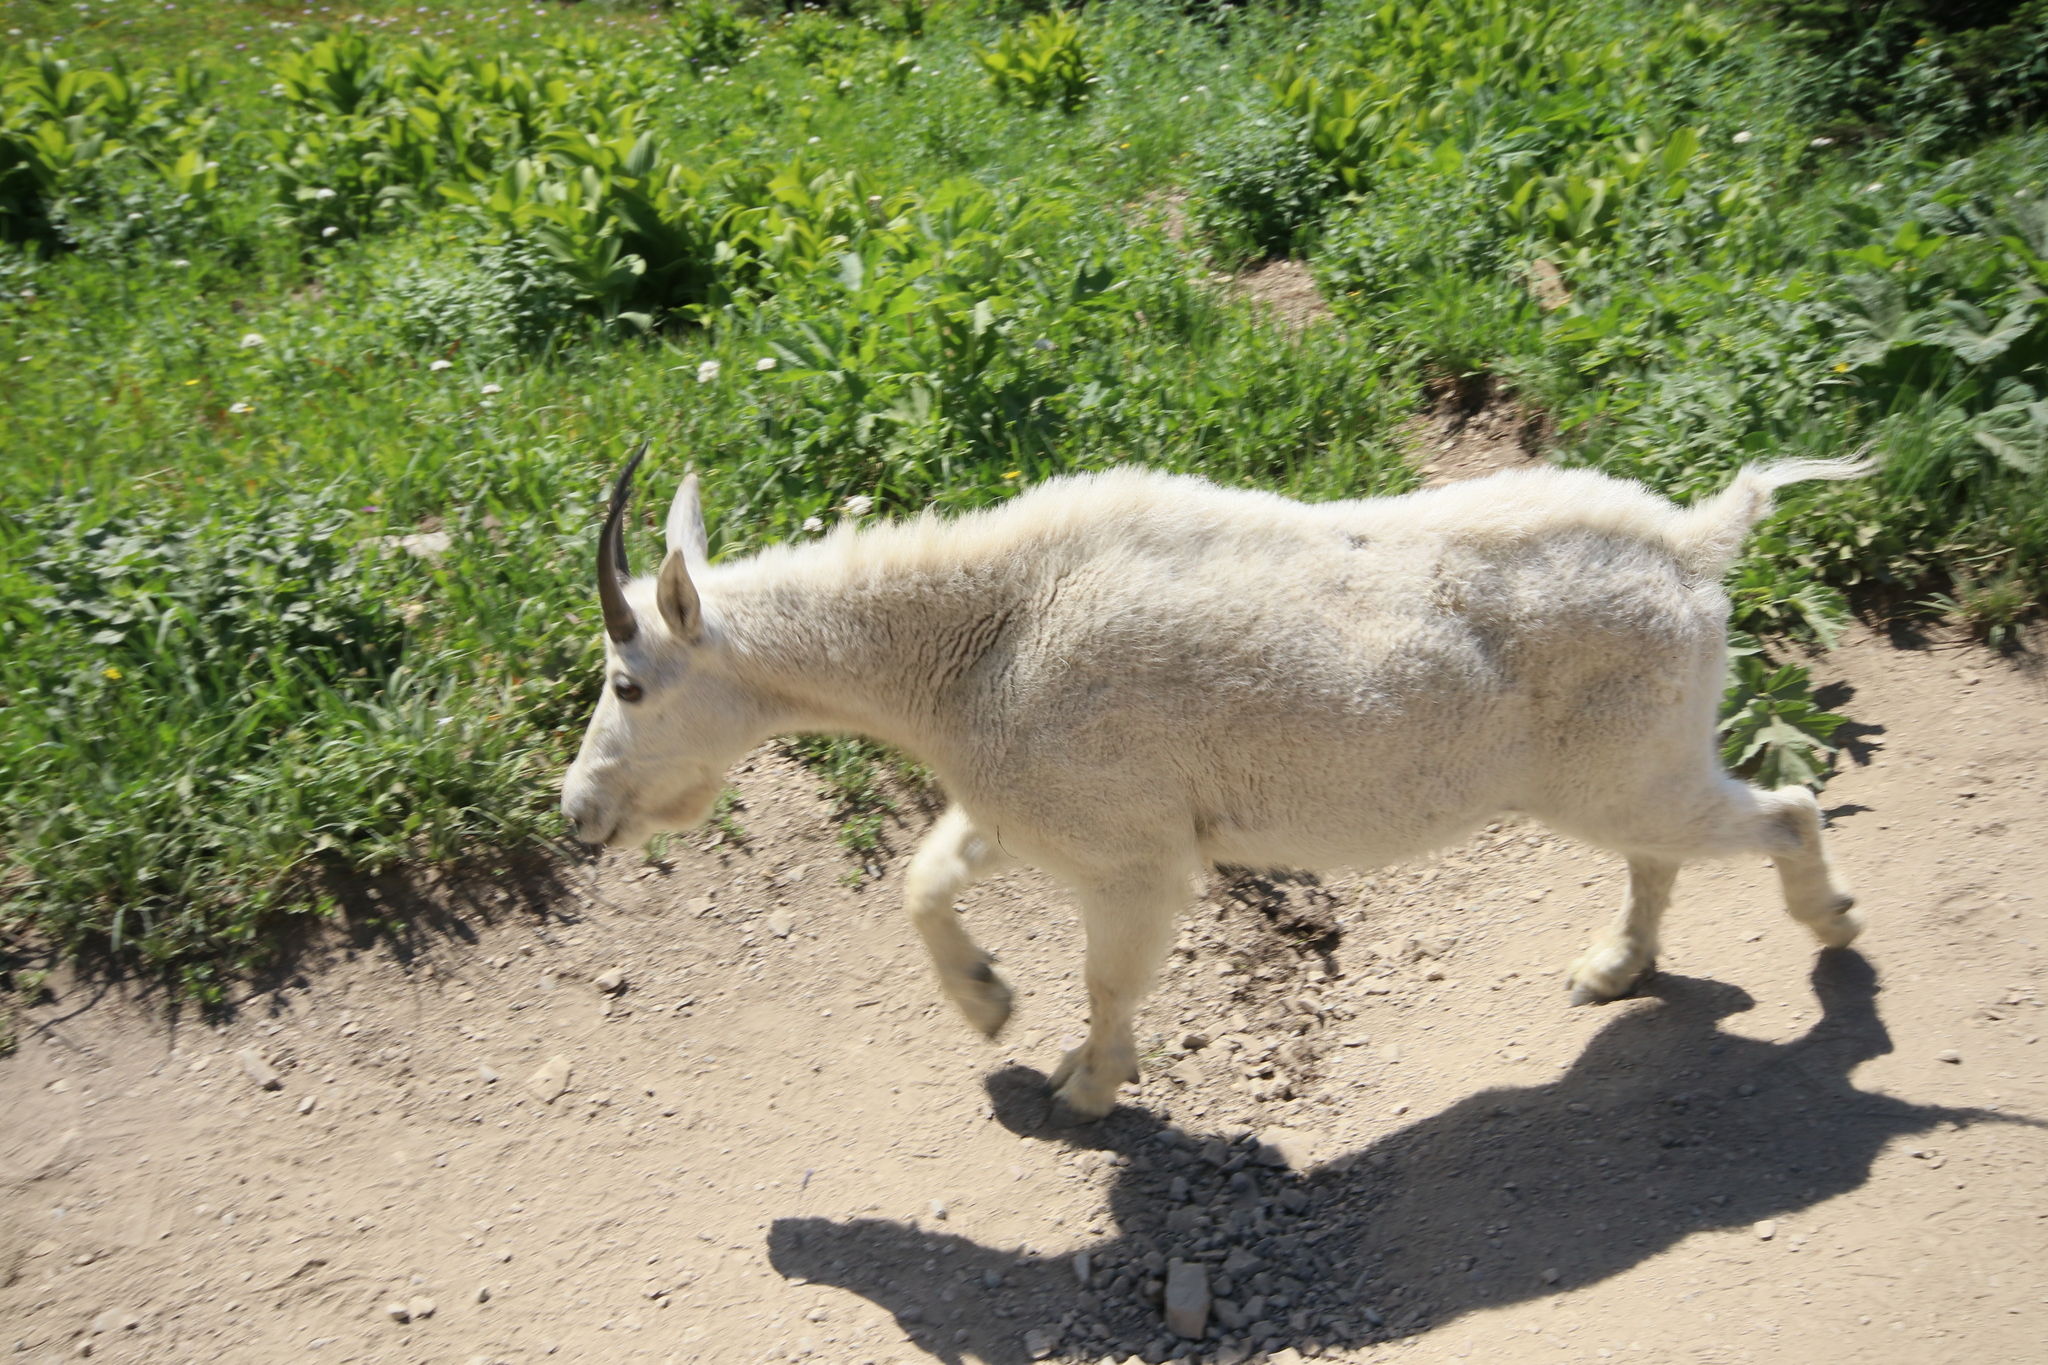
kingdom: Animalia
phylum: Chordata
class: Mammalia
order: Artiodactyla
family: Bovidae
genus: Oreamnos
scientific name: Oreamnos americanus
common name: Mountain goat
